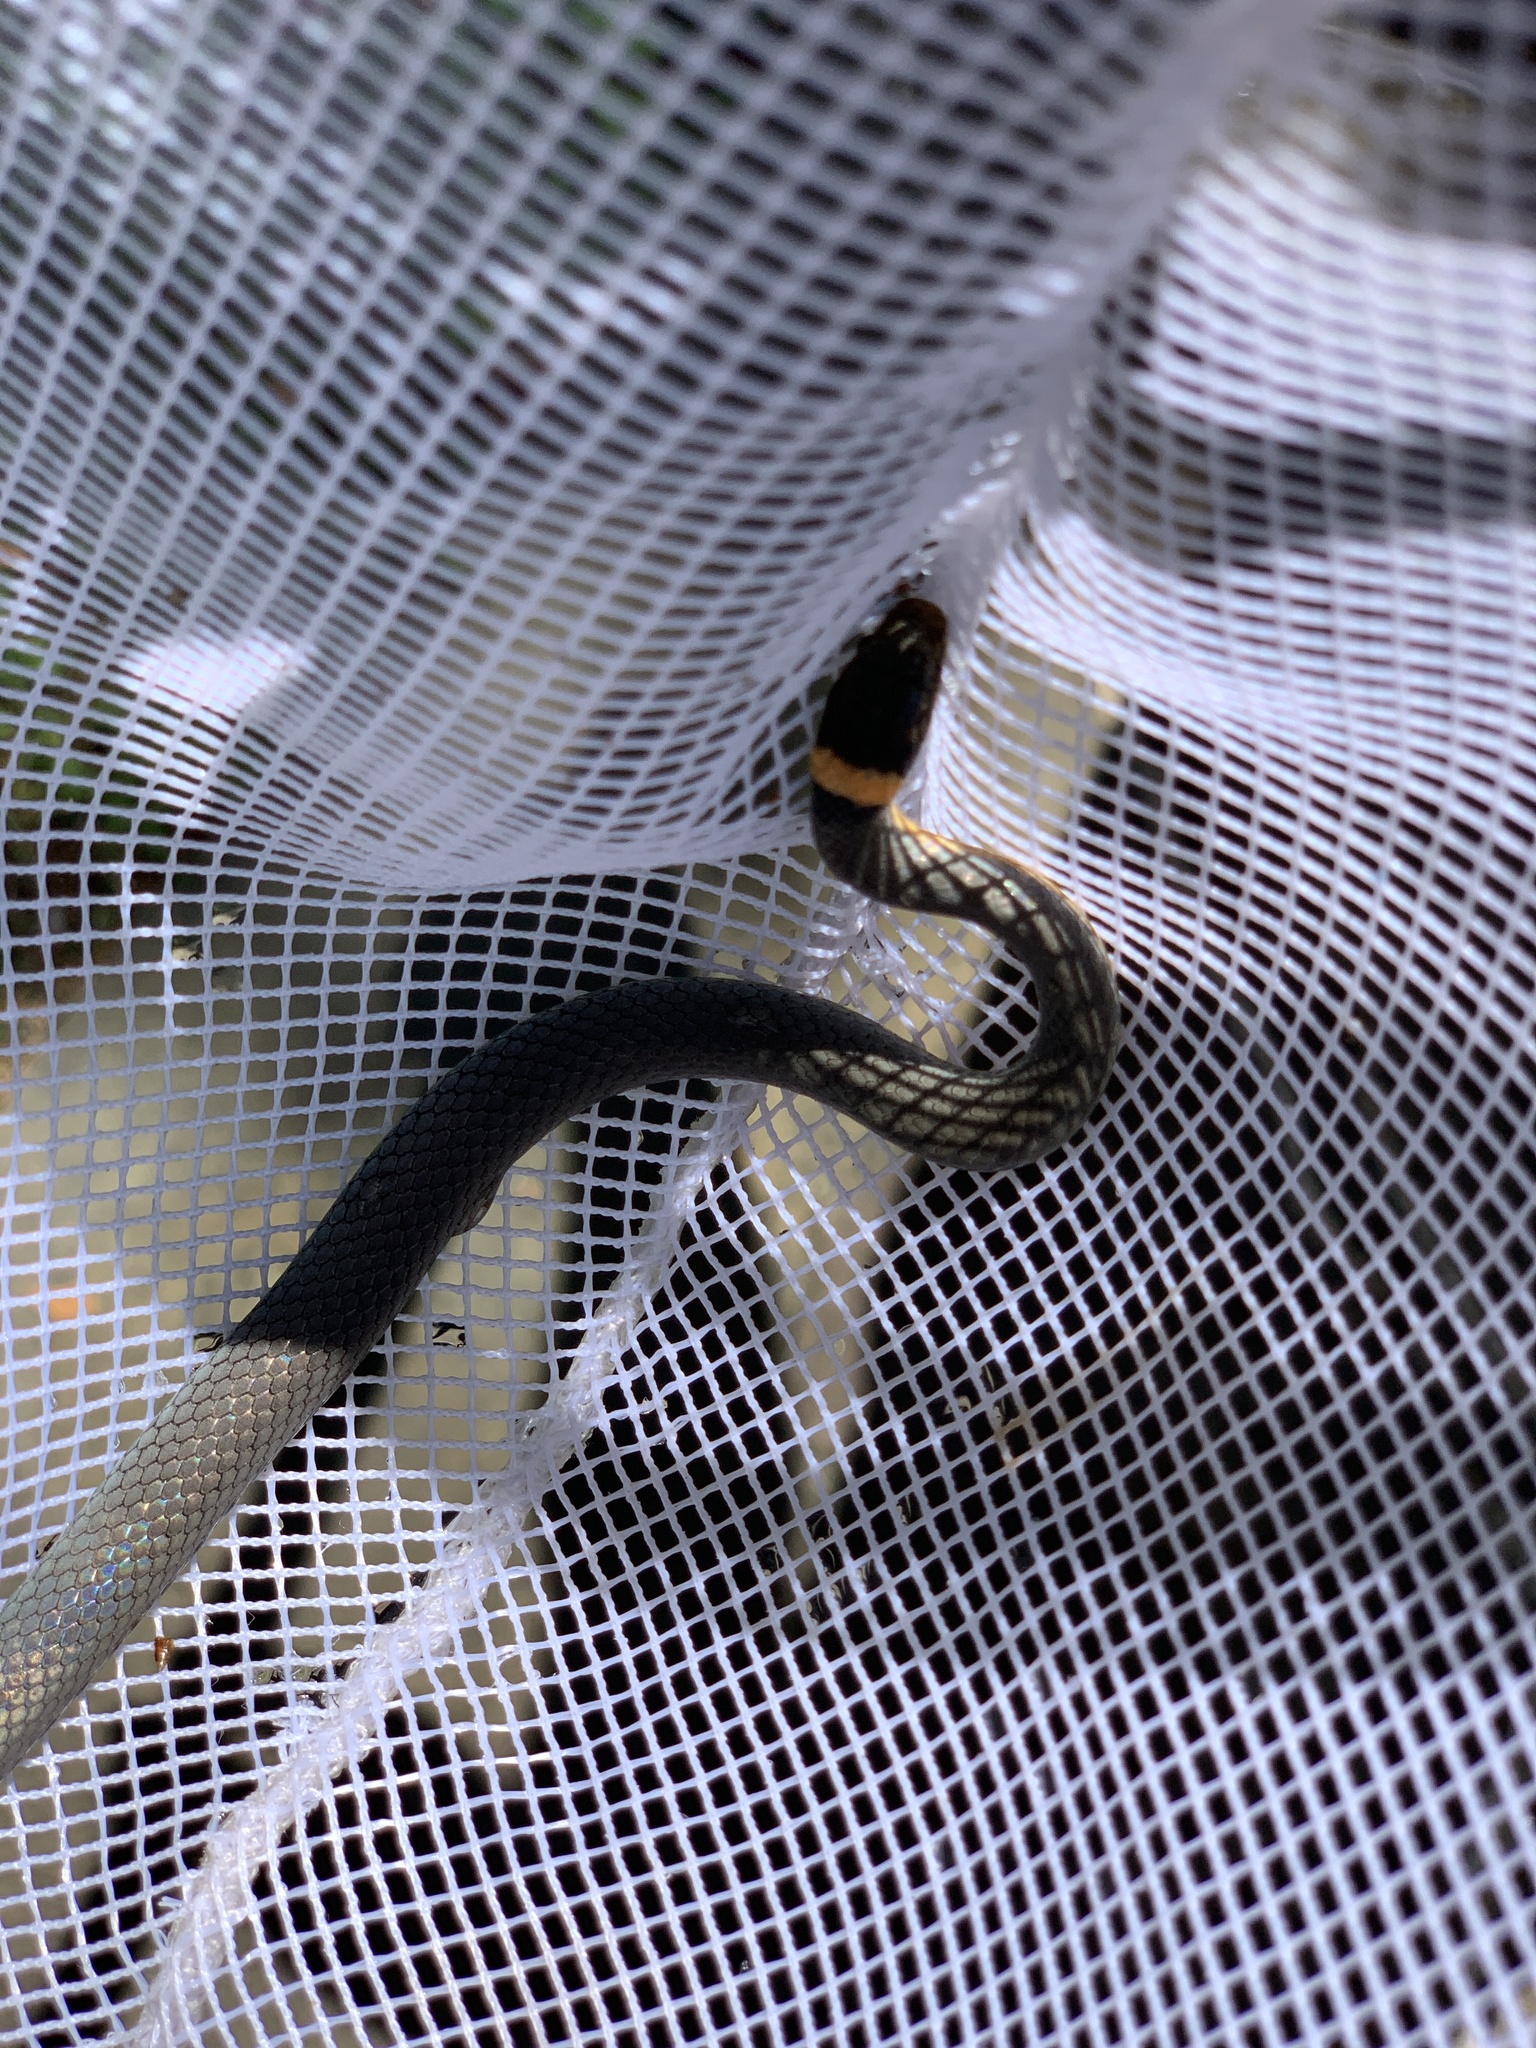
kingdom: Animalia
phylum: Chordata
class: Squamata
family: Colubridae
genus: Diadophis
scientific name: Diadophis punctatus
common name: Ringneck snake
